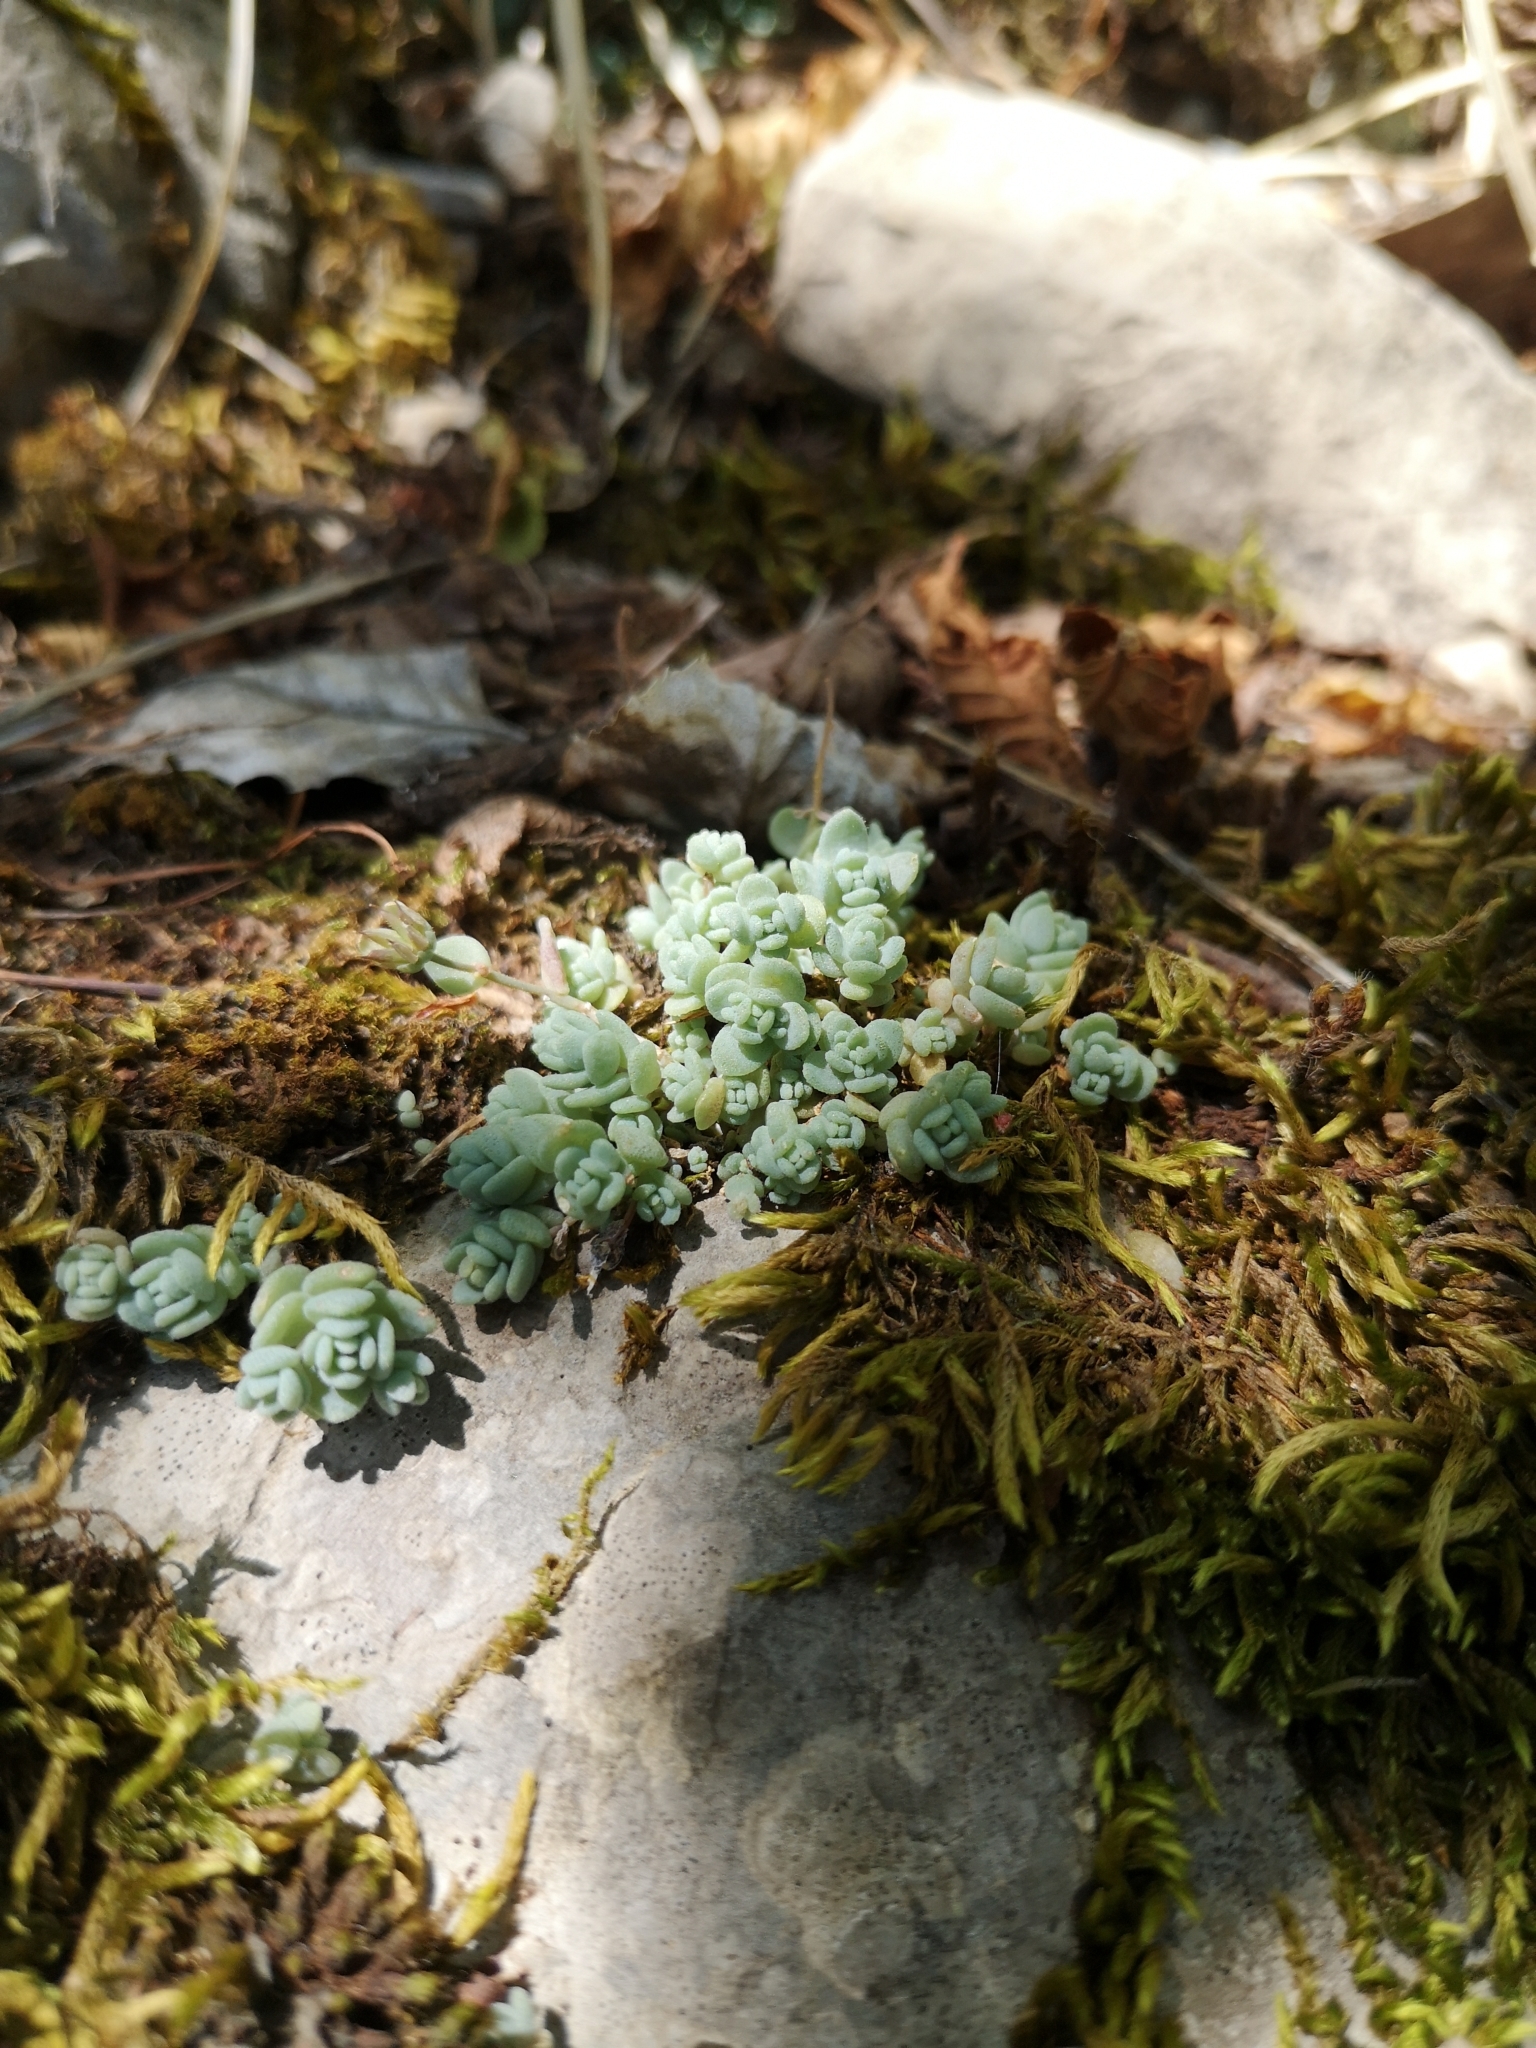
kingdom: Plantae
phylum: Tracheophyta
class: Magnoliopsida
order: Saxifragales
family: Crassulaceae
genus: Sedum
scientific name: Sedum dasyphyllum
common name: Thick-leaf stonecrop
